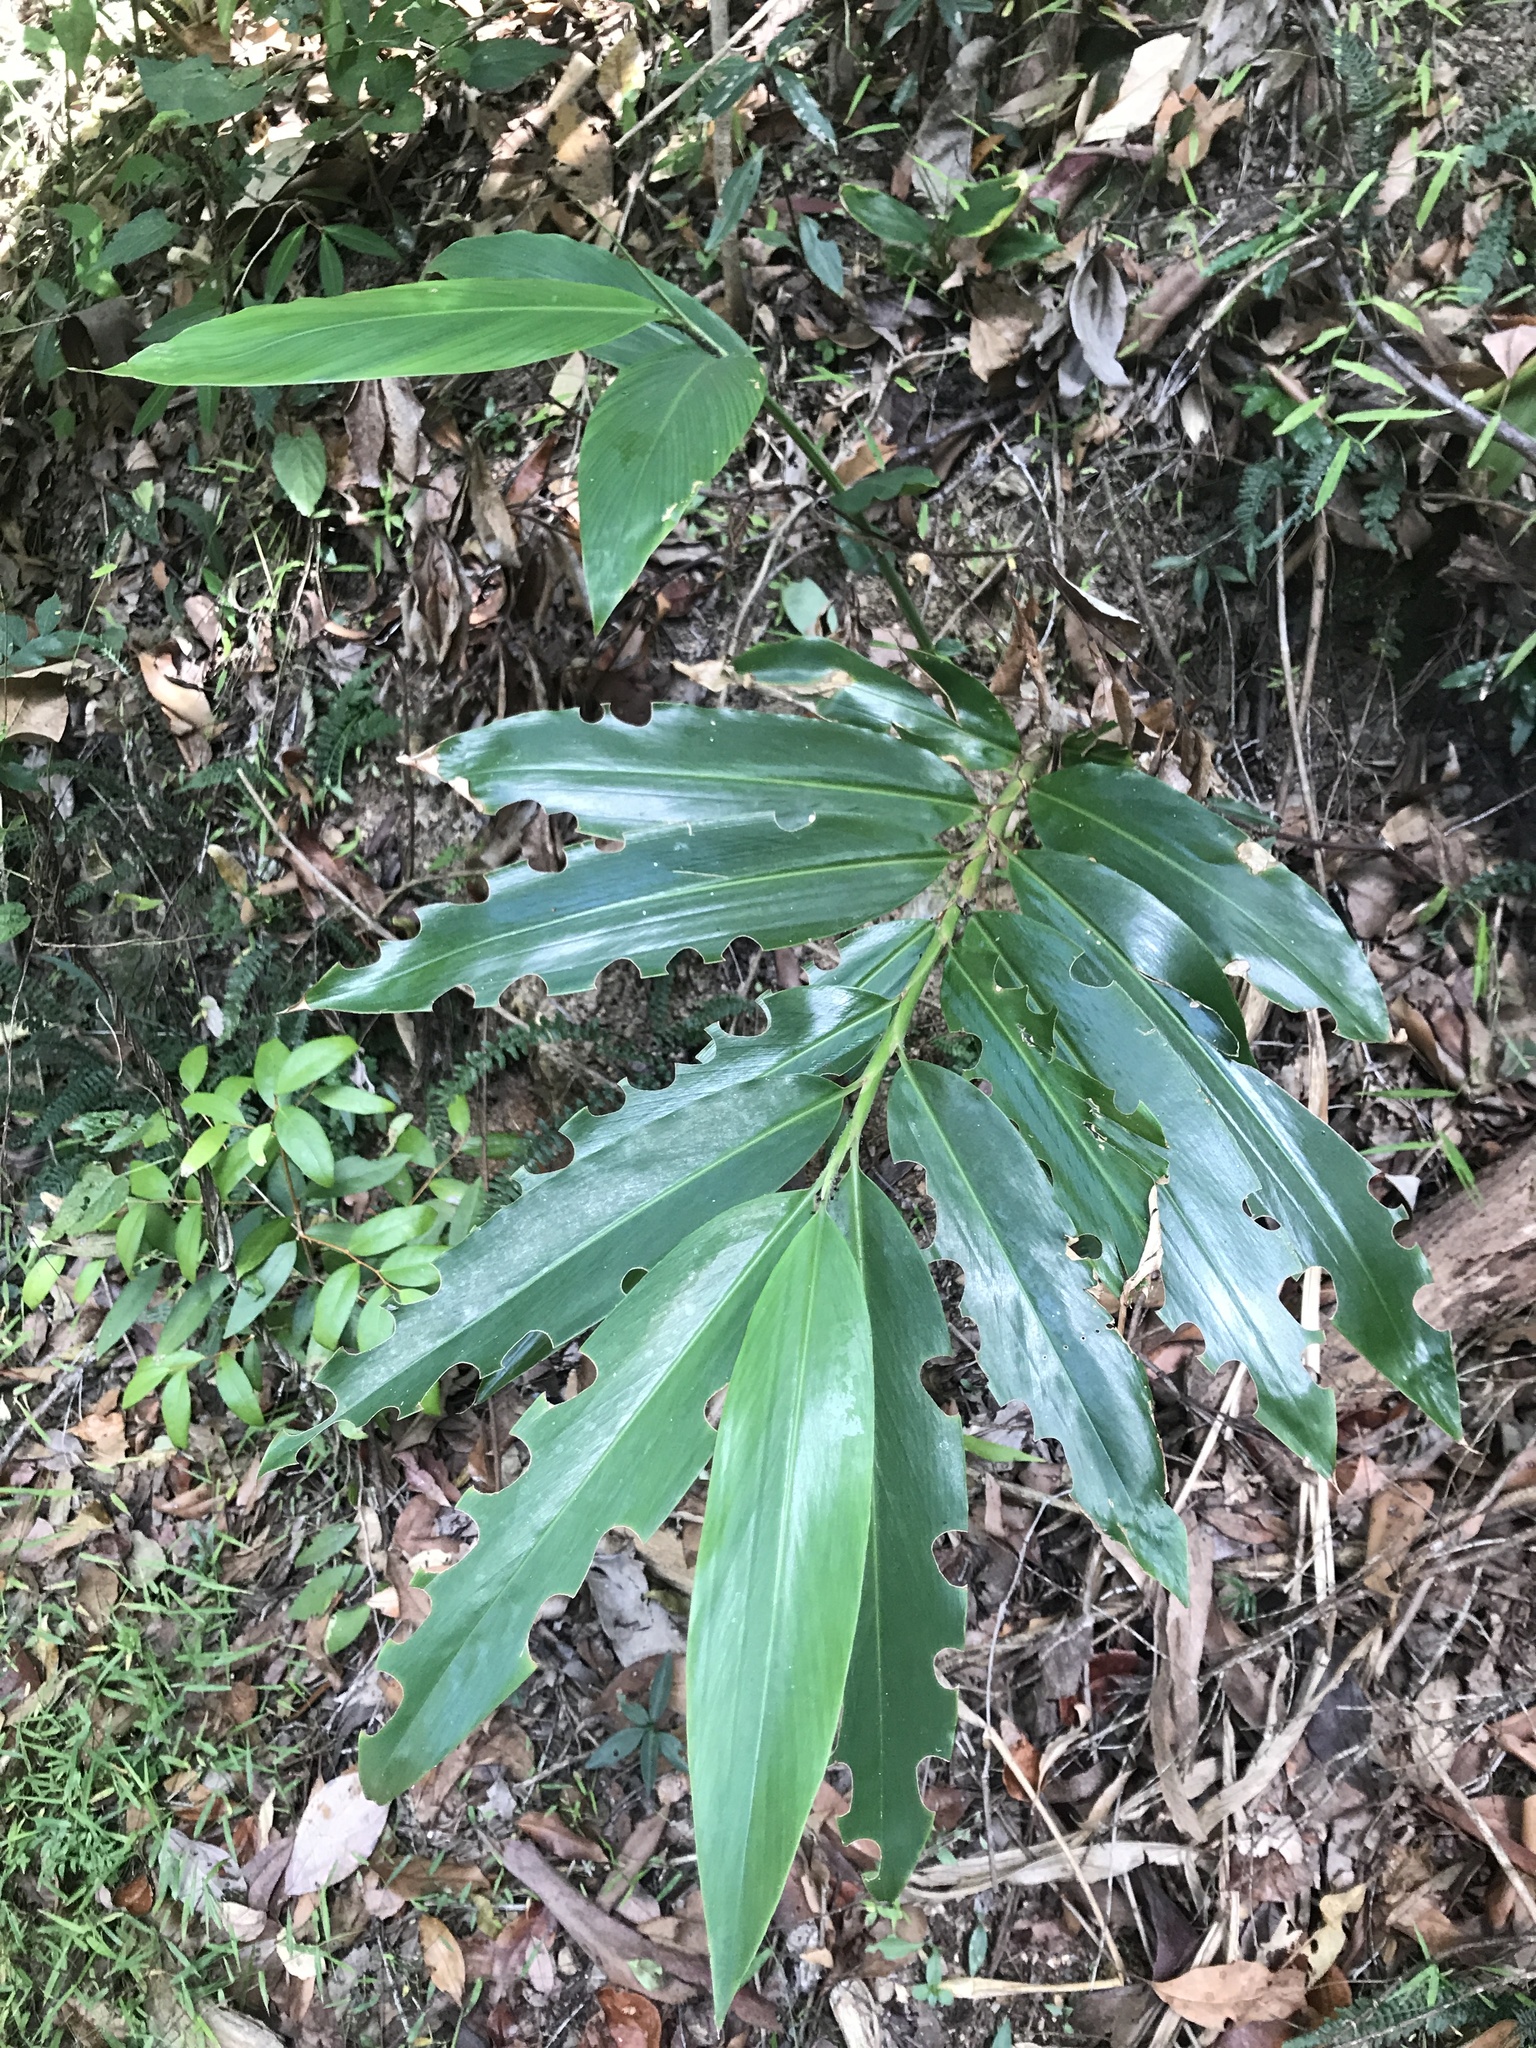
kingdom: Plantae
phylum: Tracheophyta
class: Liliopsida
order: Zingiberales
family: Zingiberaceae
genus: Alpinia
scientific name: Alpinia caerulea
